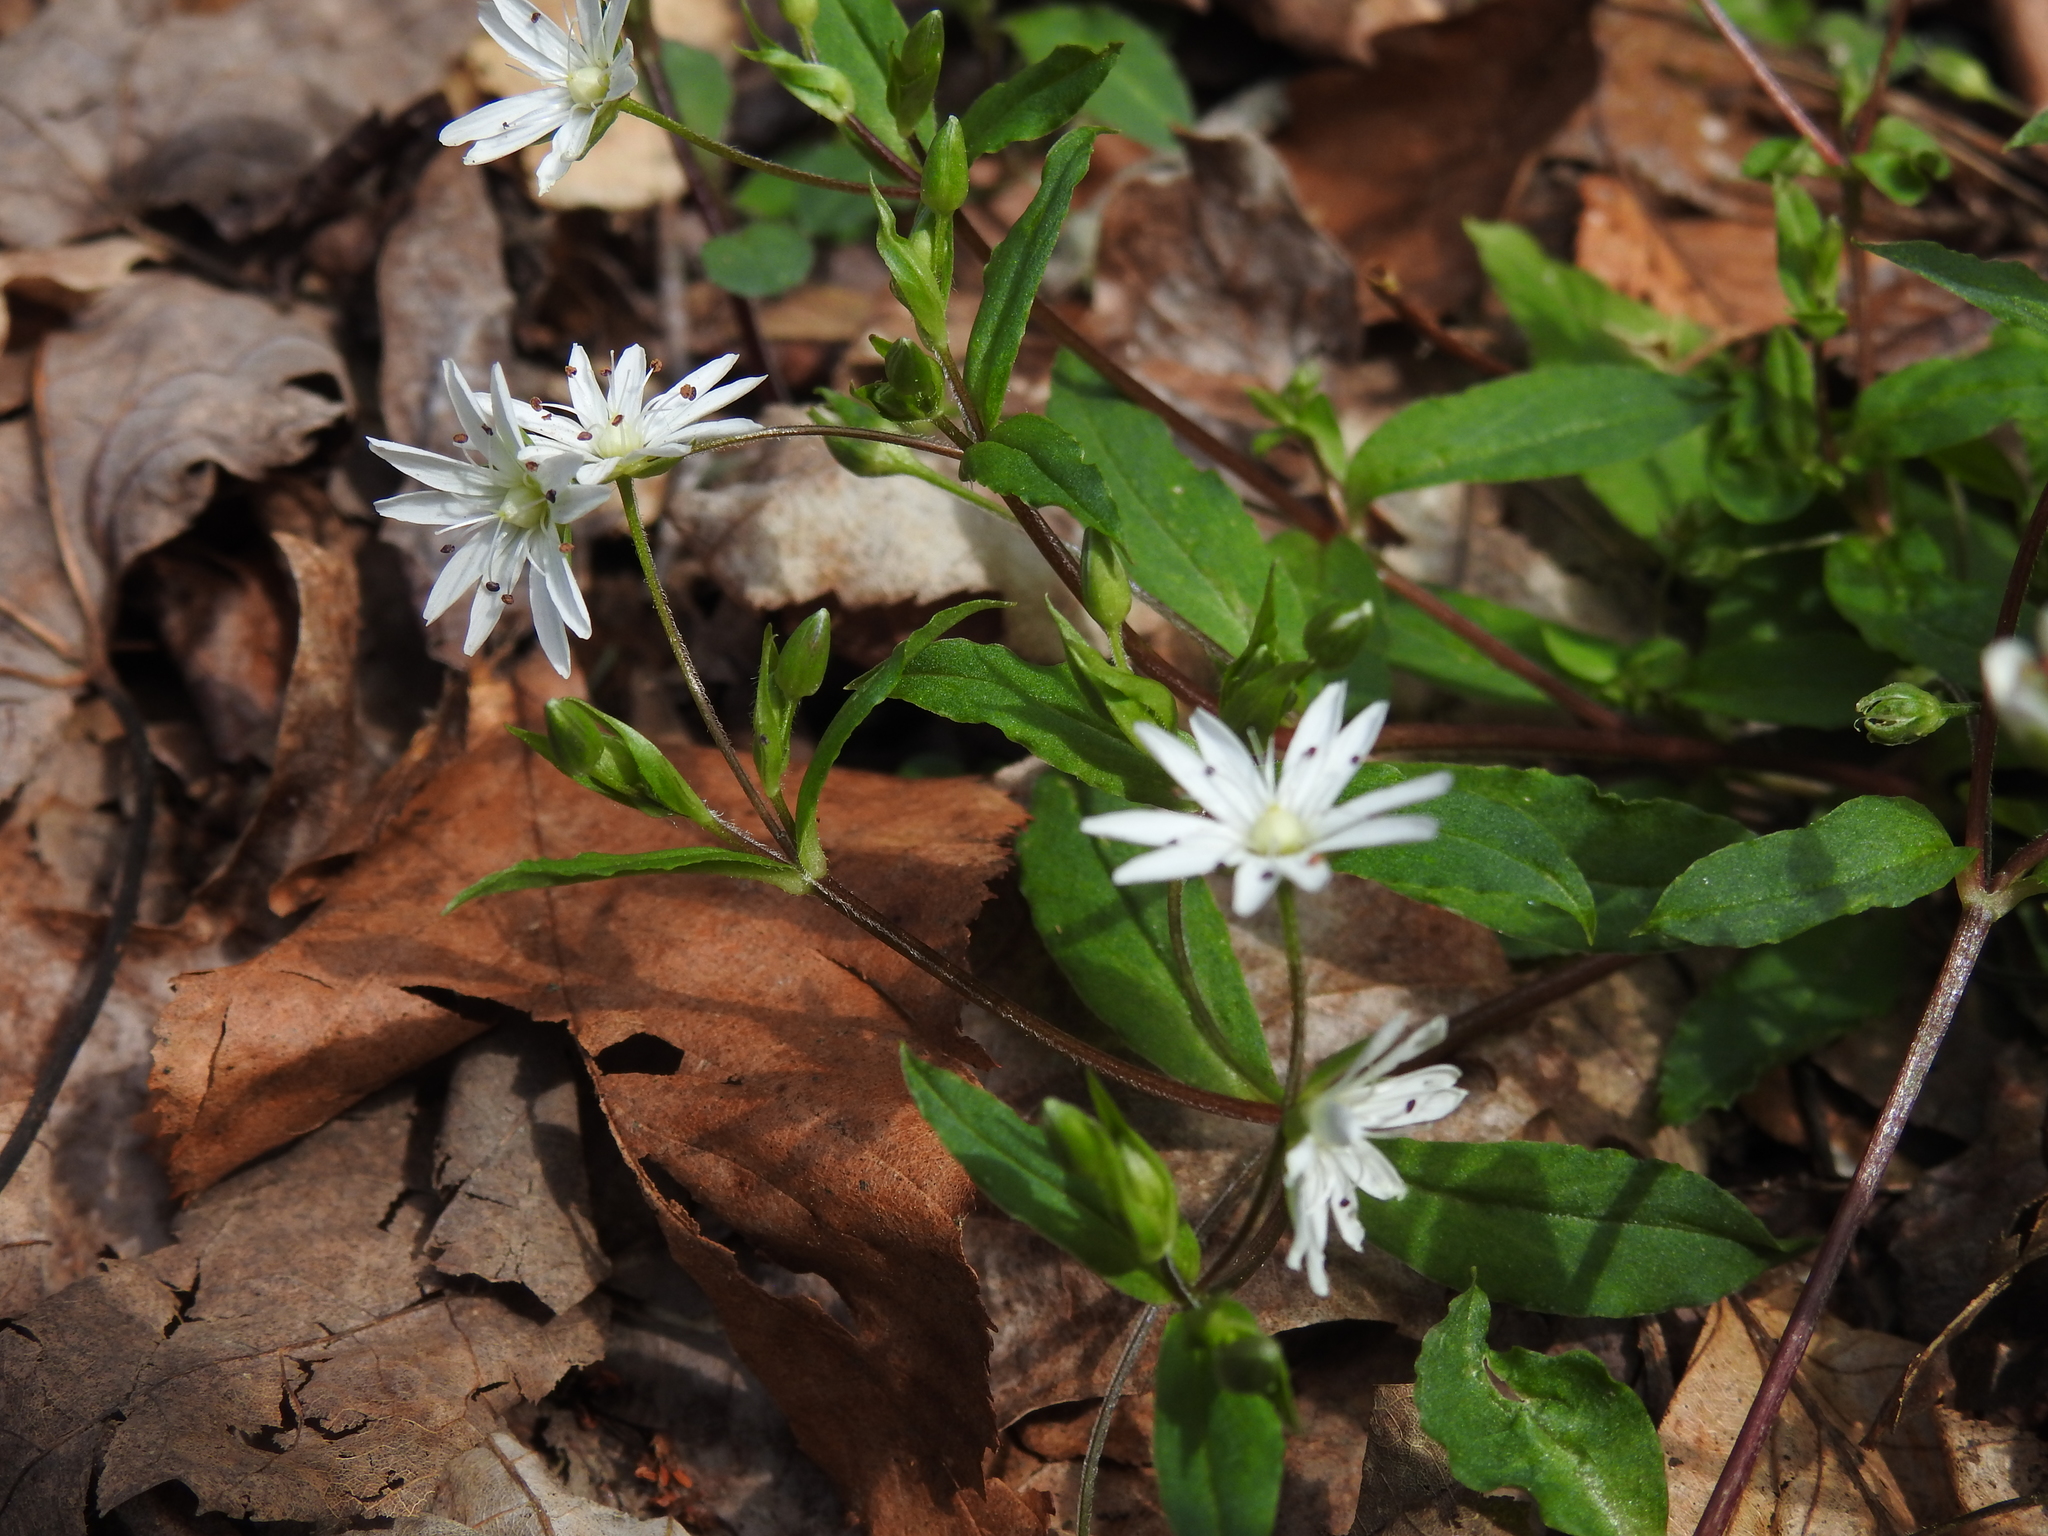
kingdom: Plantae
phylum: Tracheophyta
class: Magnoliopsida
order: Caryophyllales
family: Caryophyllaceae
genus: Stellaria
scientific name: Stellaria pubera
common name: Star chickweed
